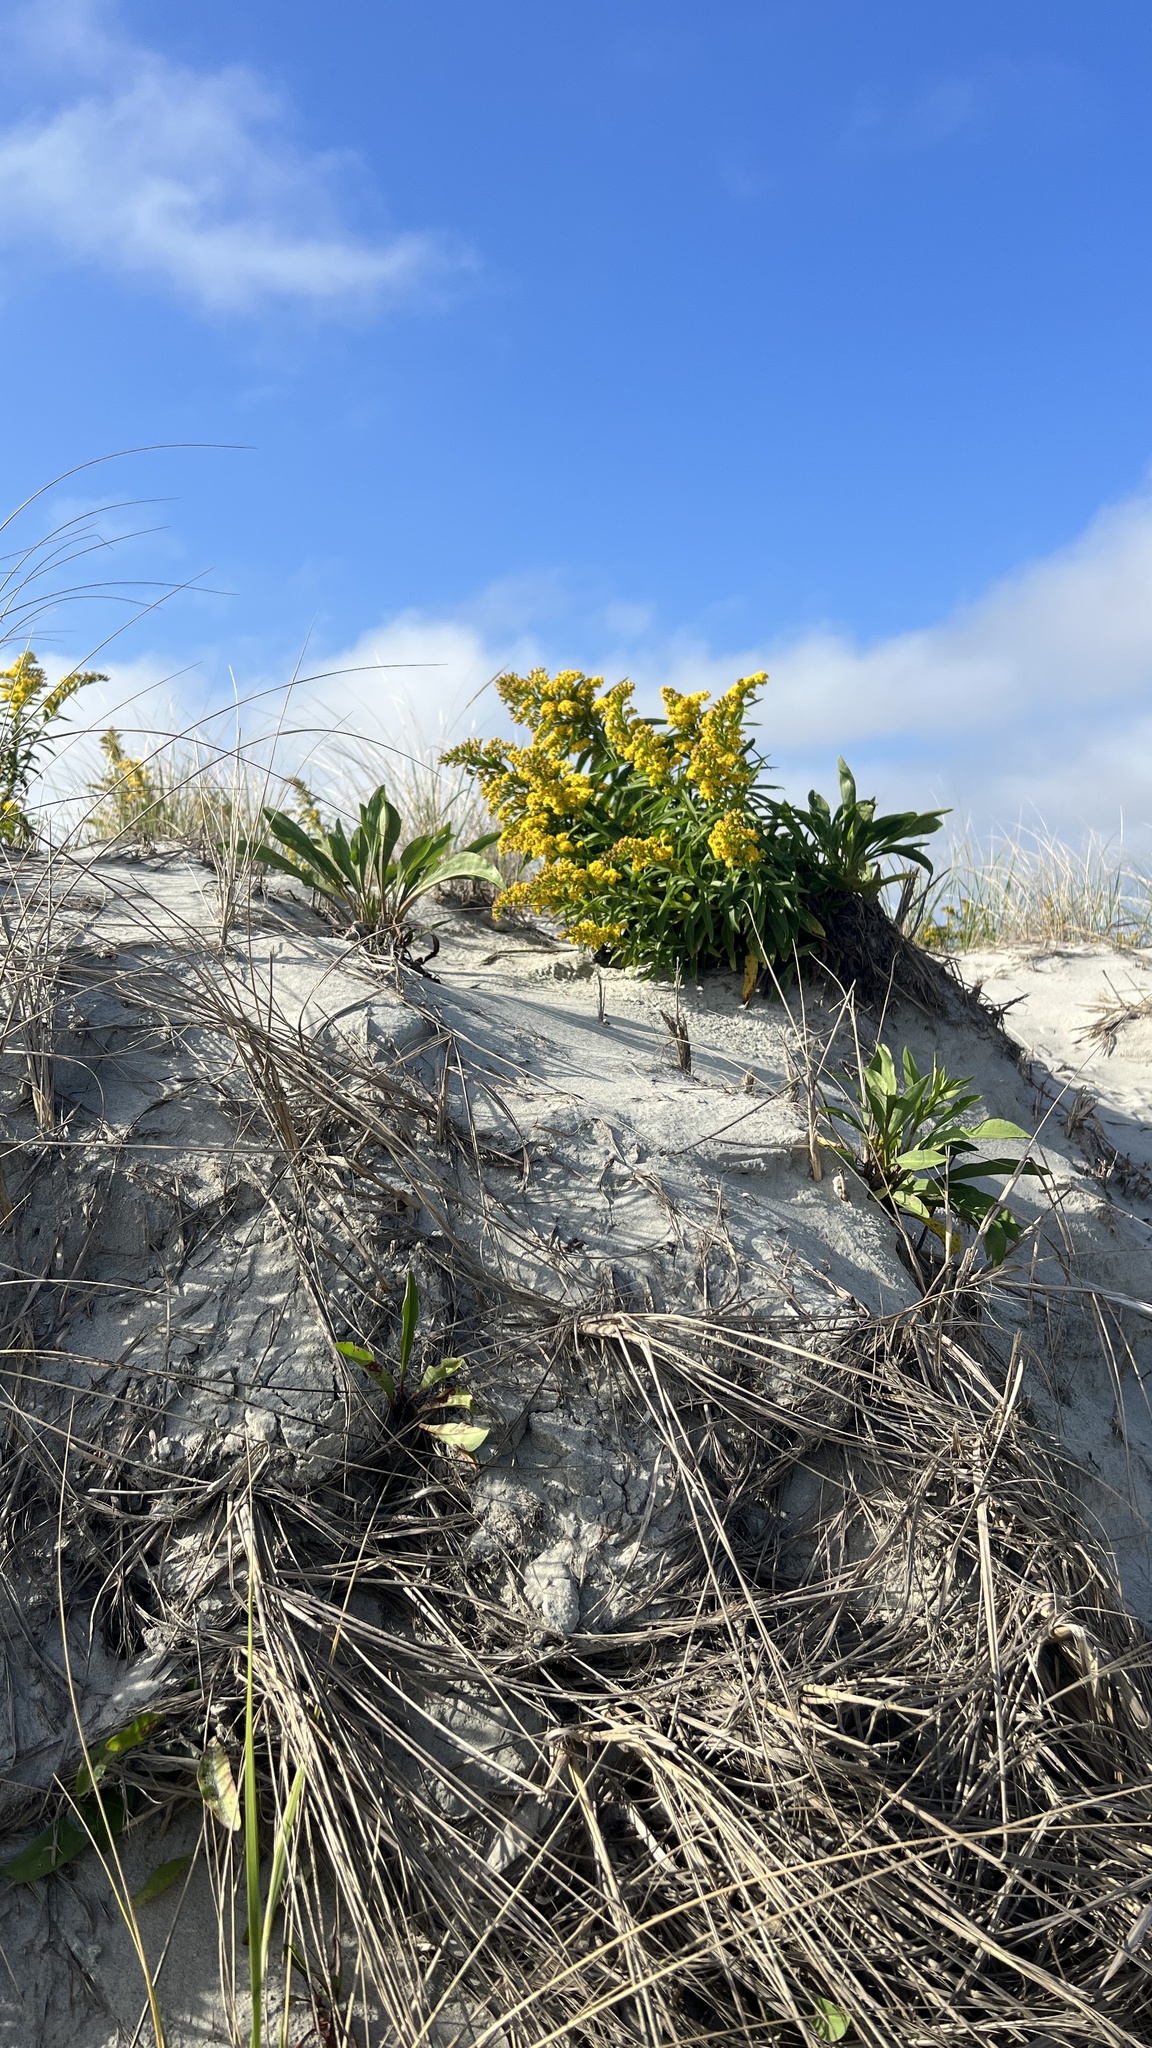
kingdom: Plantae
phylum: Tracheophyta
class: Magnoliopsida
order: Asterales
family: Asteraceae
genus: Solidago
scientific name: Solidago sempervirens
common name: Salt-marsh goldenrod
